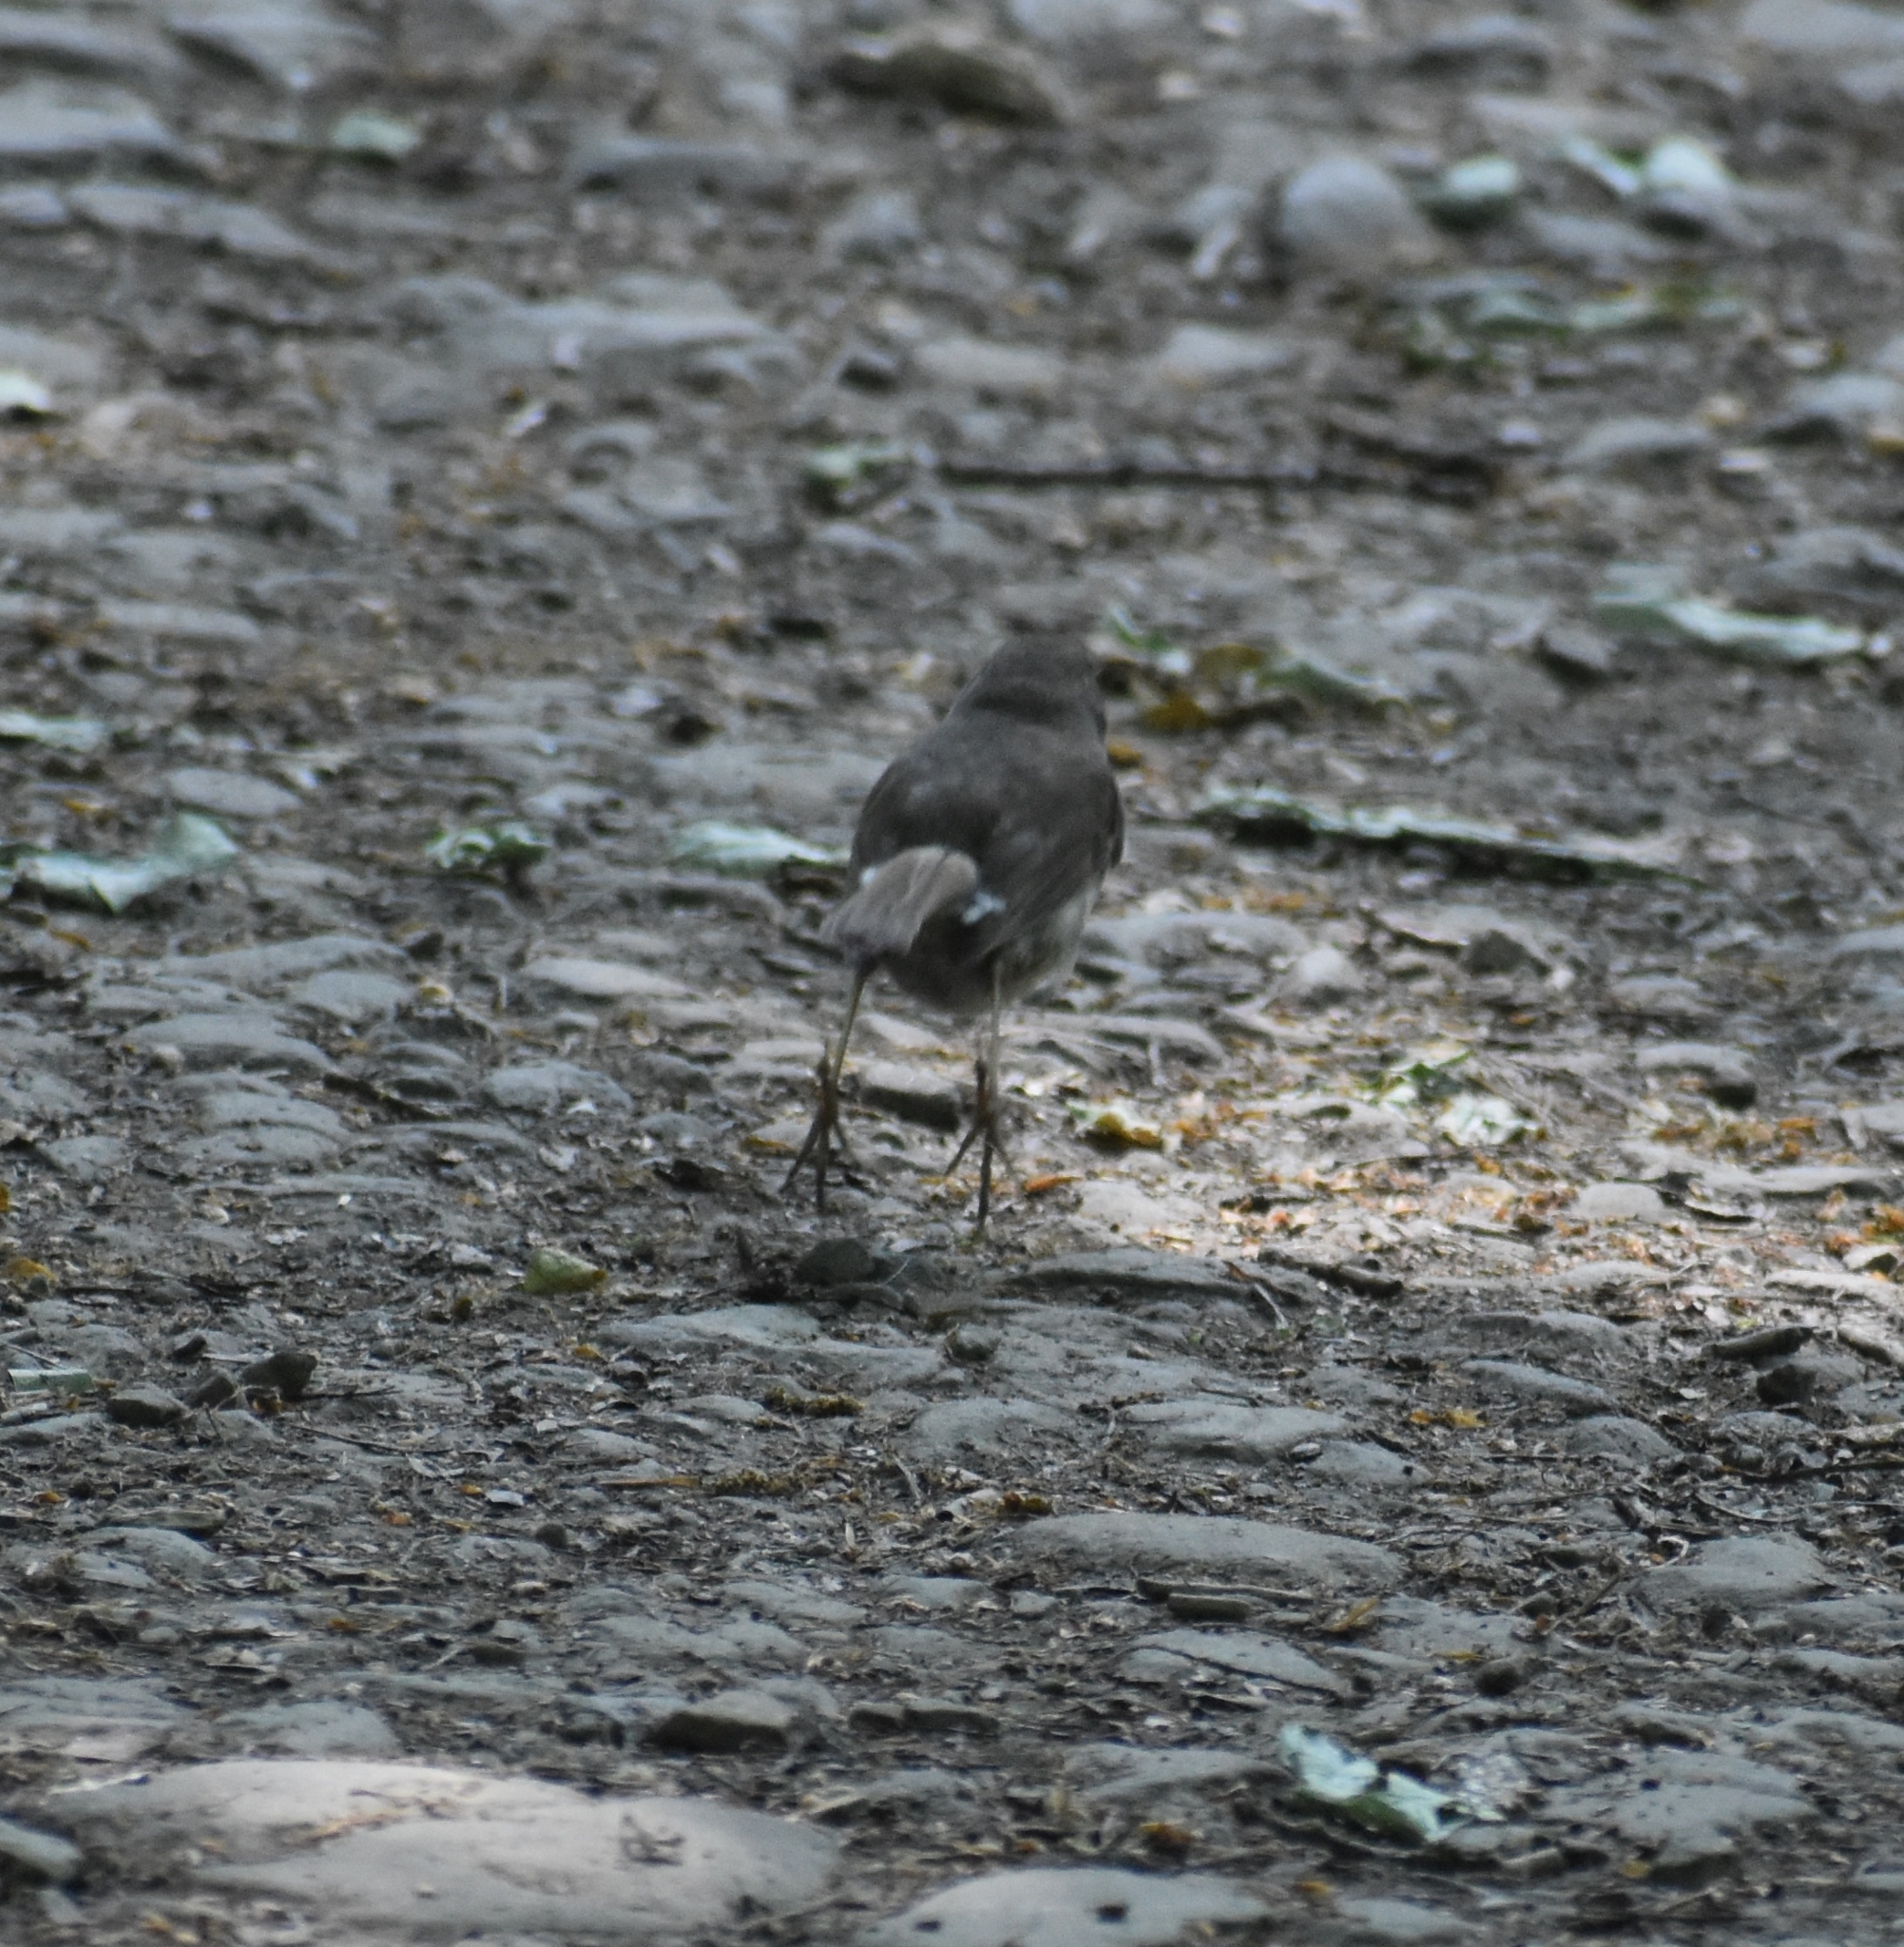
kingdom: Animalia
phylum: Chordata
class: Aves
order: Passeriformes
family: Muscicapidae
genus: Erithacus
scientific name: Erithacus rubecula
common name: European robin
